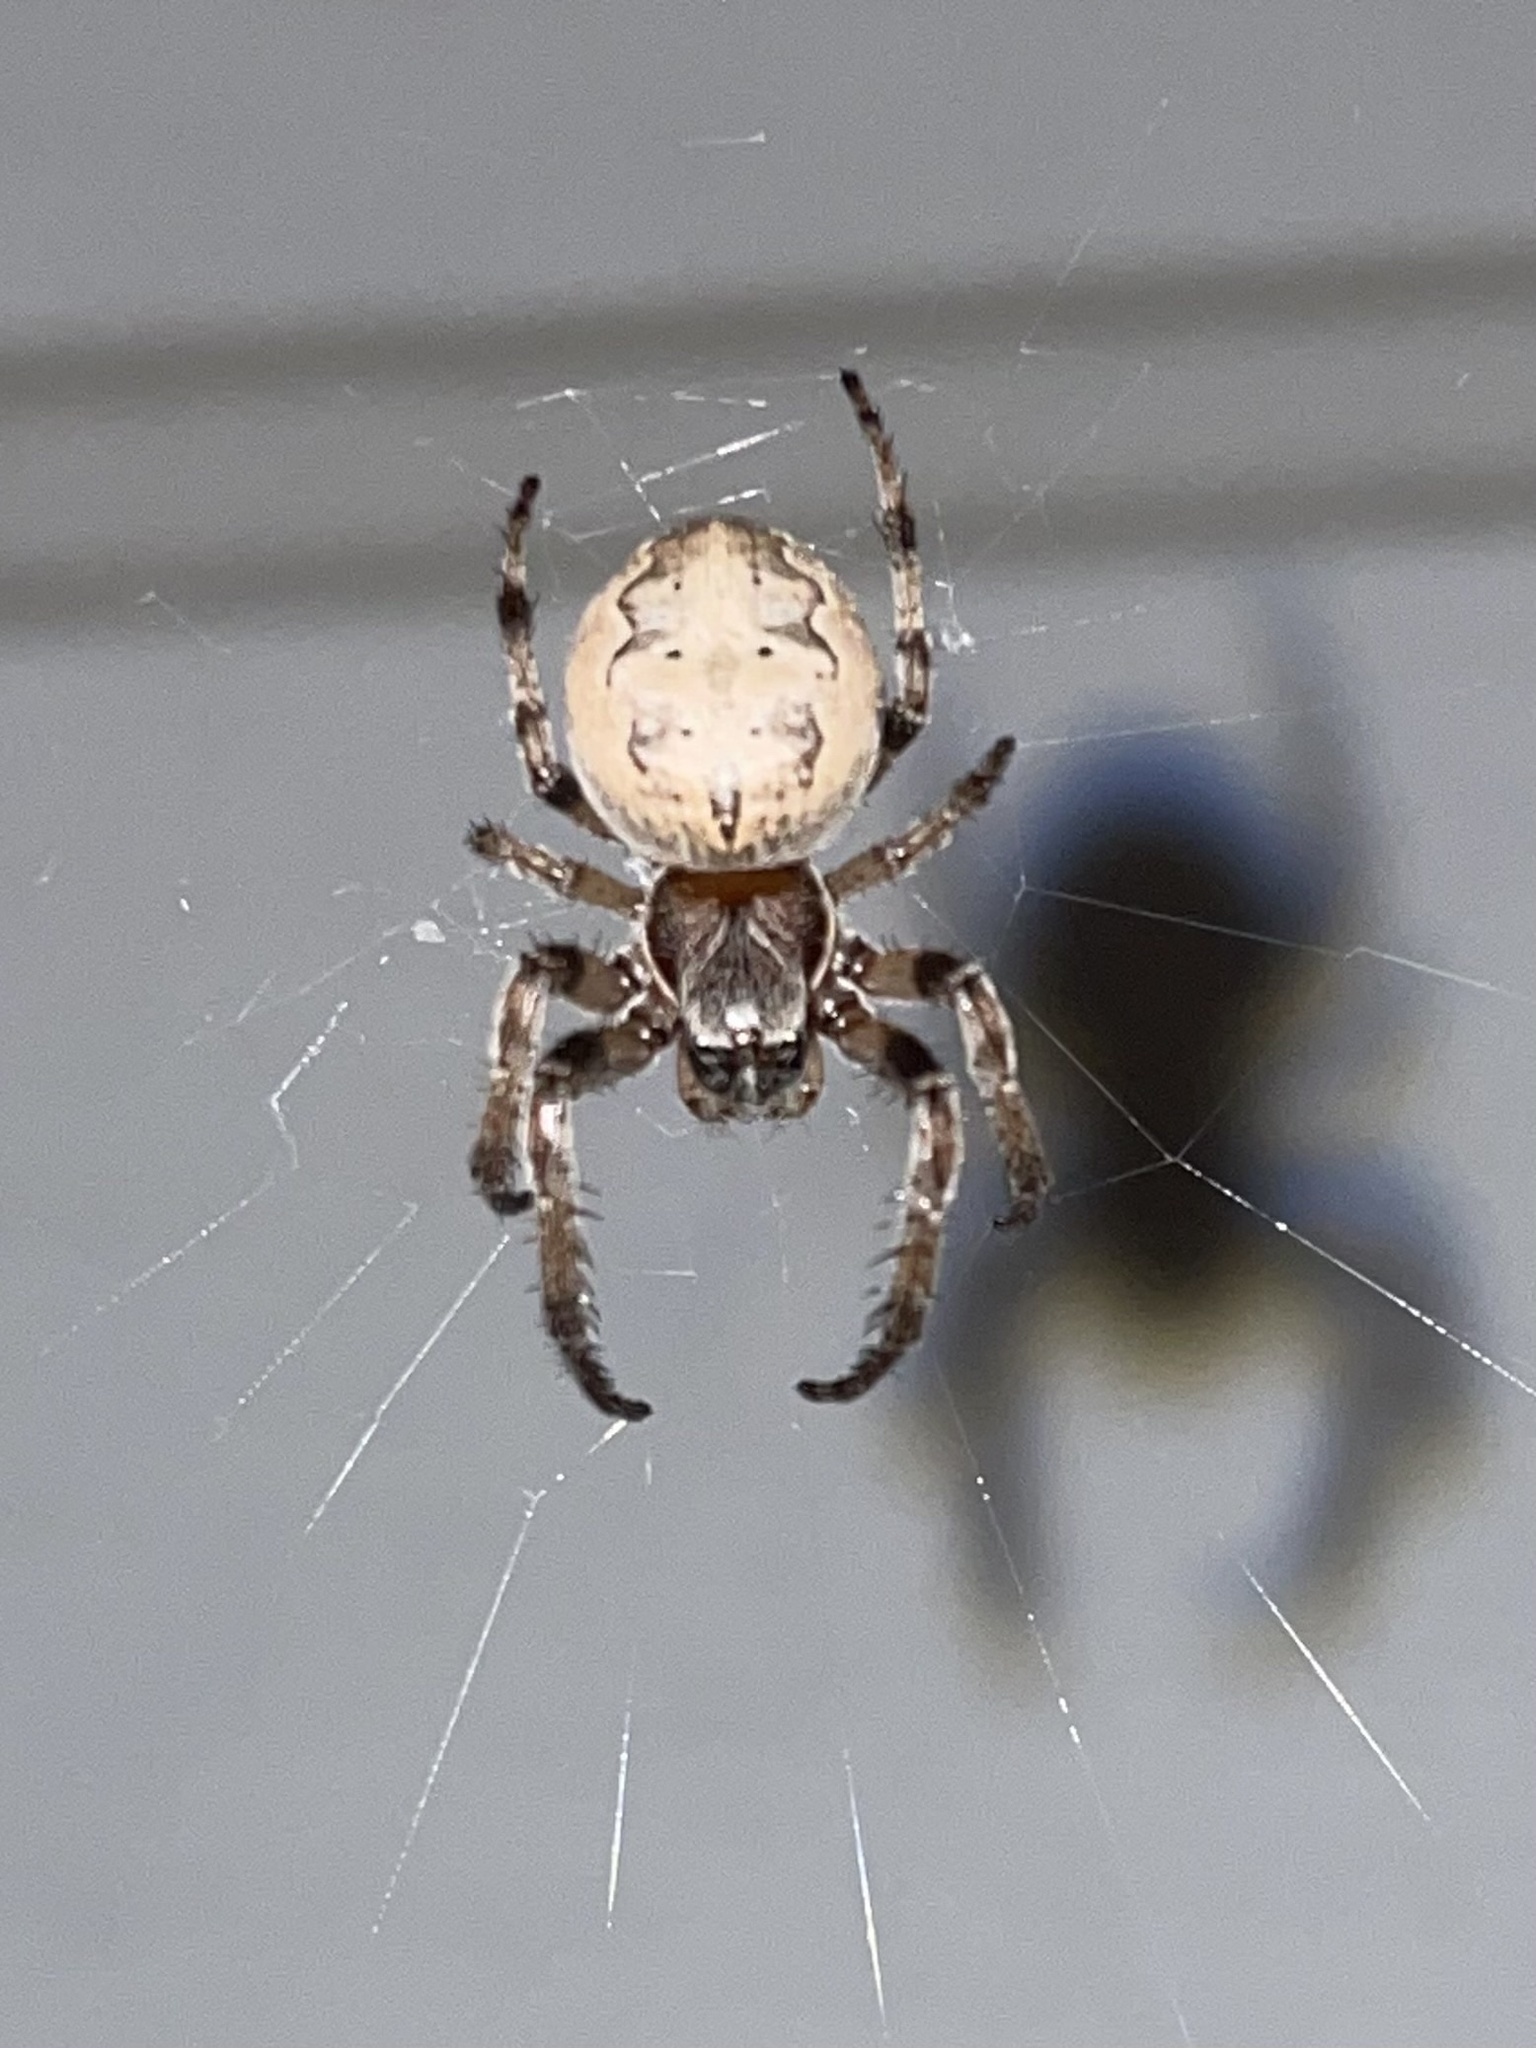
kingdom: Animalia
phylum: Arthropoda
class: Arachnida
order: Araneae
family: Araneidae
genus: Larinioides
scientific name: Larinioides cornutus
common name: Furrow orbweaver
